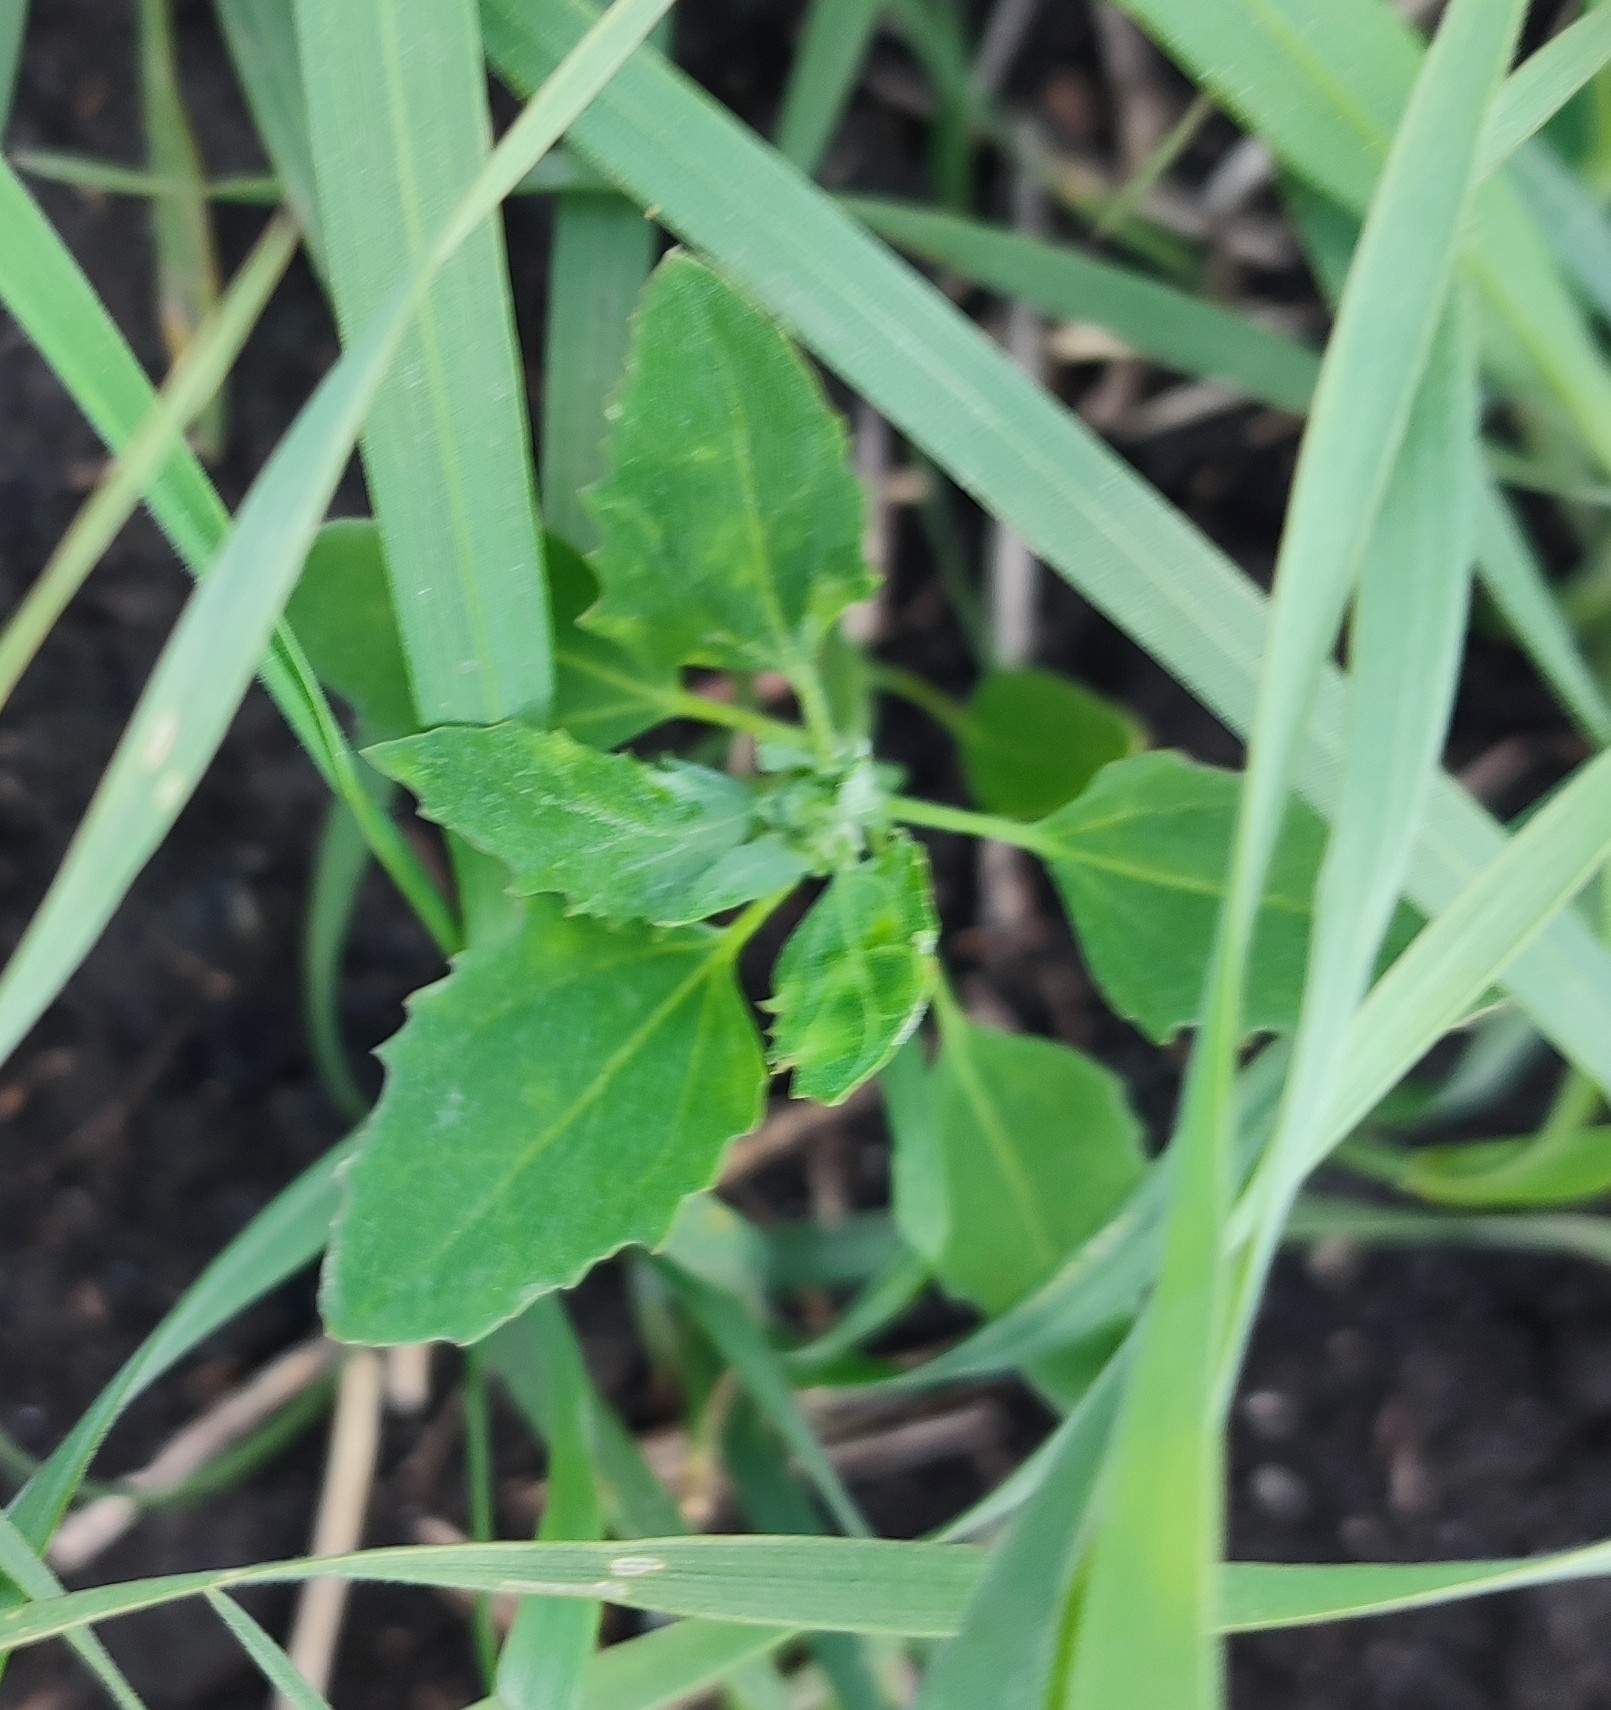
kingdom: Plantae
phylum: Tracheophyta
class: Magnoliopsida
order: Caryophyllales
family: Amaranthaceae
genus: Chenopodium
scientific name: Chenopodium album
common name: Fat-hen
